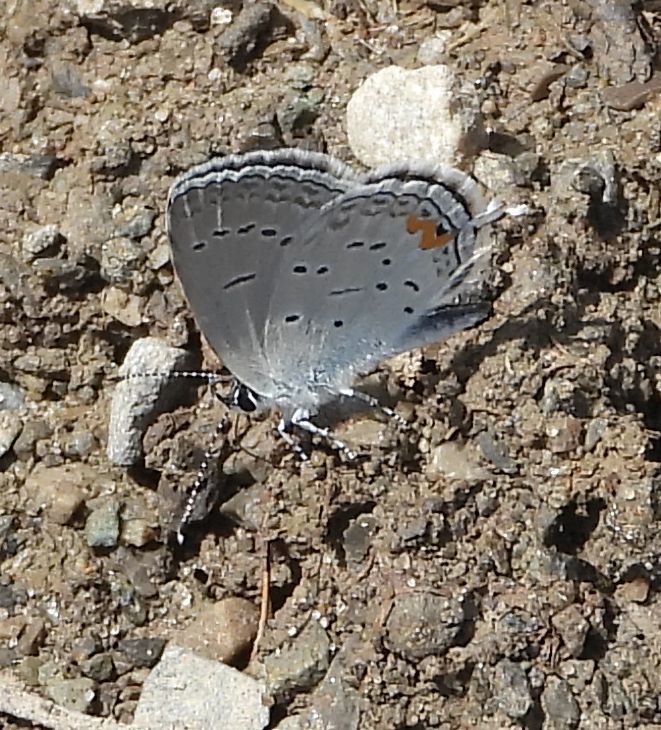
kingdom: Animalia
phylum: Arthropoda
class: Insecta
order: Lepidoptera
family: Lycaenidae
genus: Elkalyce
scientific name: Elkalyce comyntas
